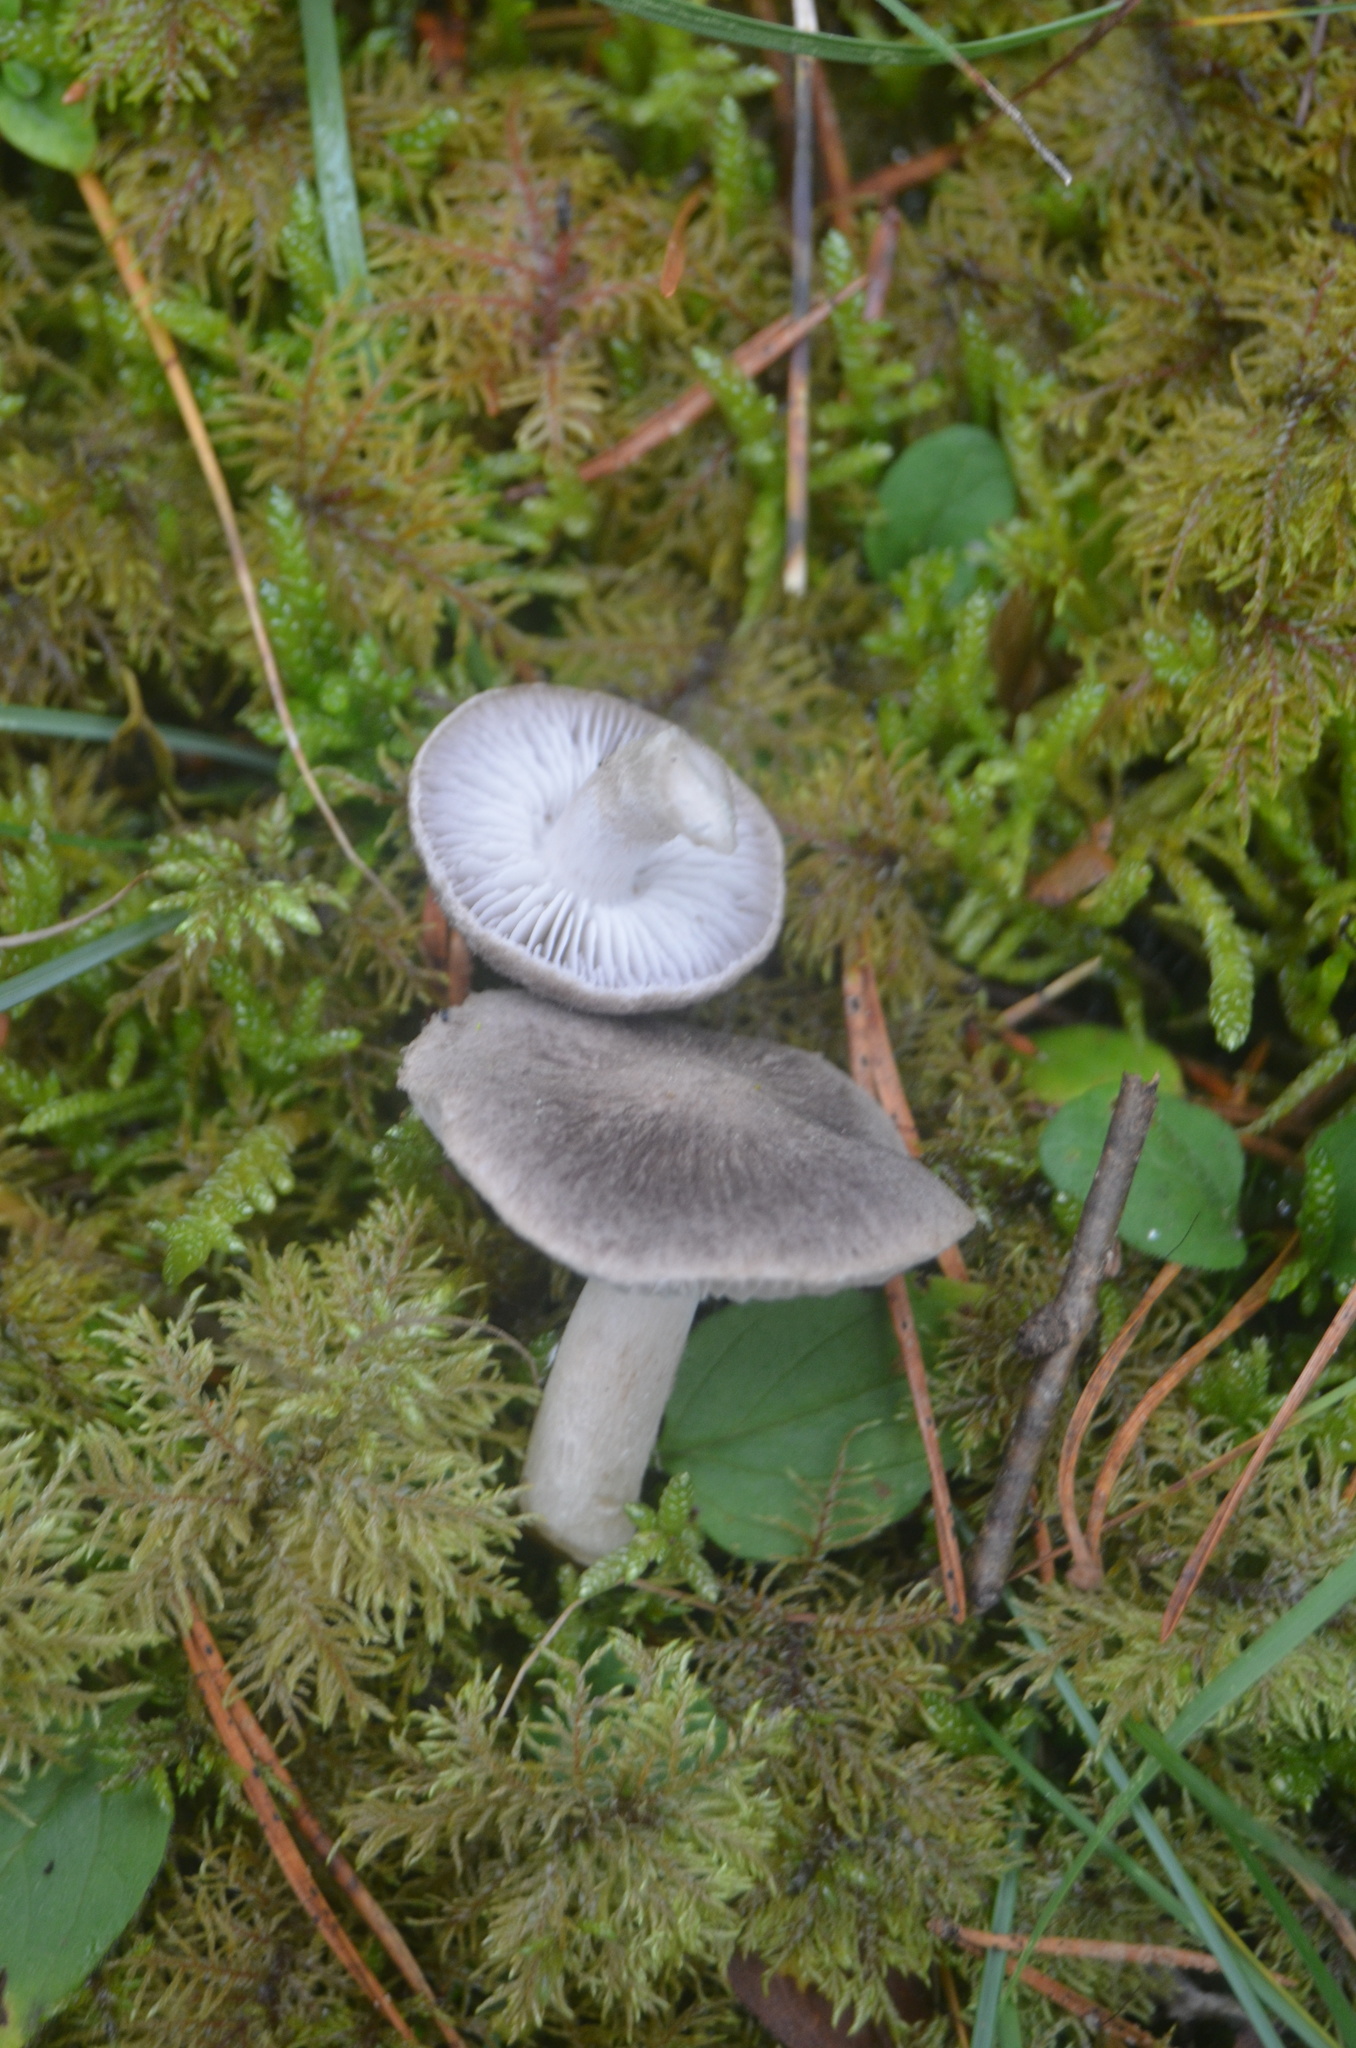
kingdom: Fungi
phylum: Basidiomycota
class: Agaricomycetes
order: Agaricales
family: Tricholomataceae
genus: Tricholoma
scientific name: Tricholoma terreum
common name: Grey knight
